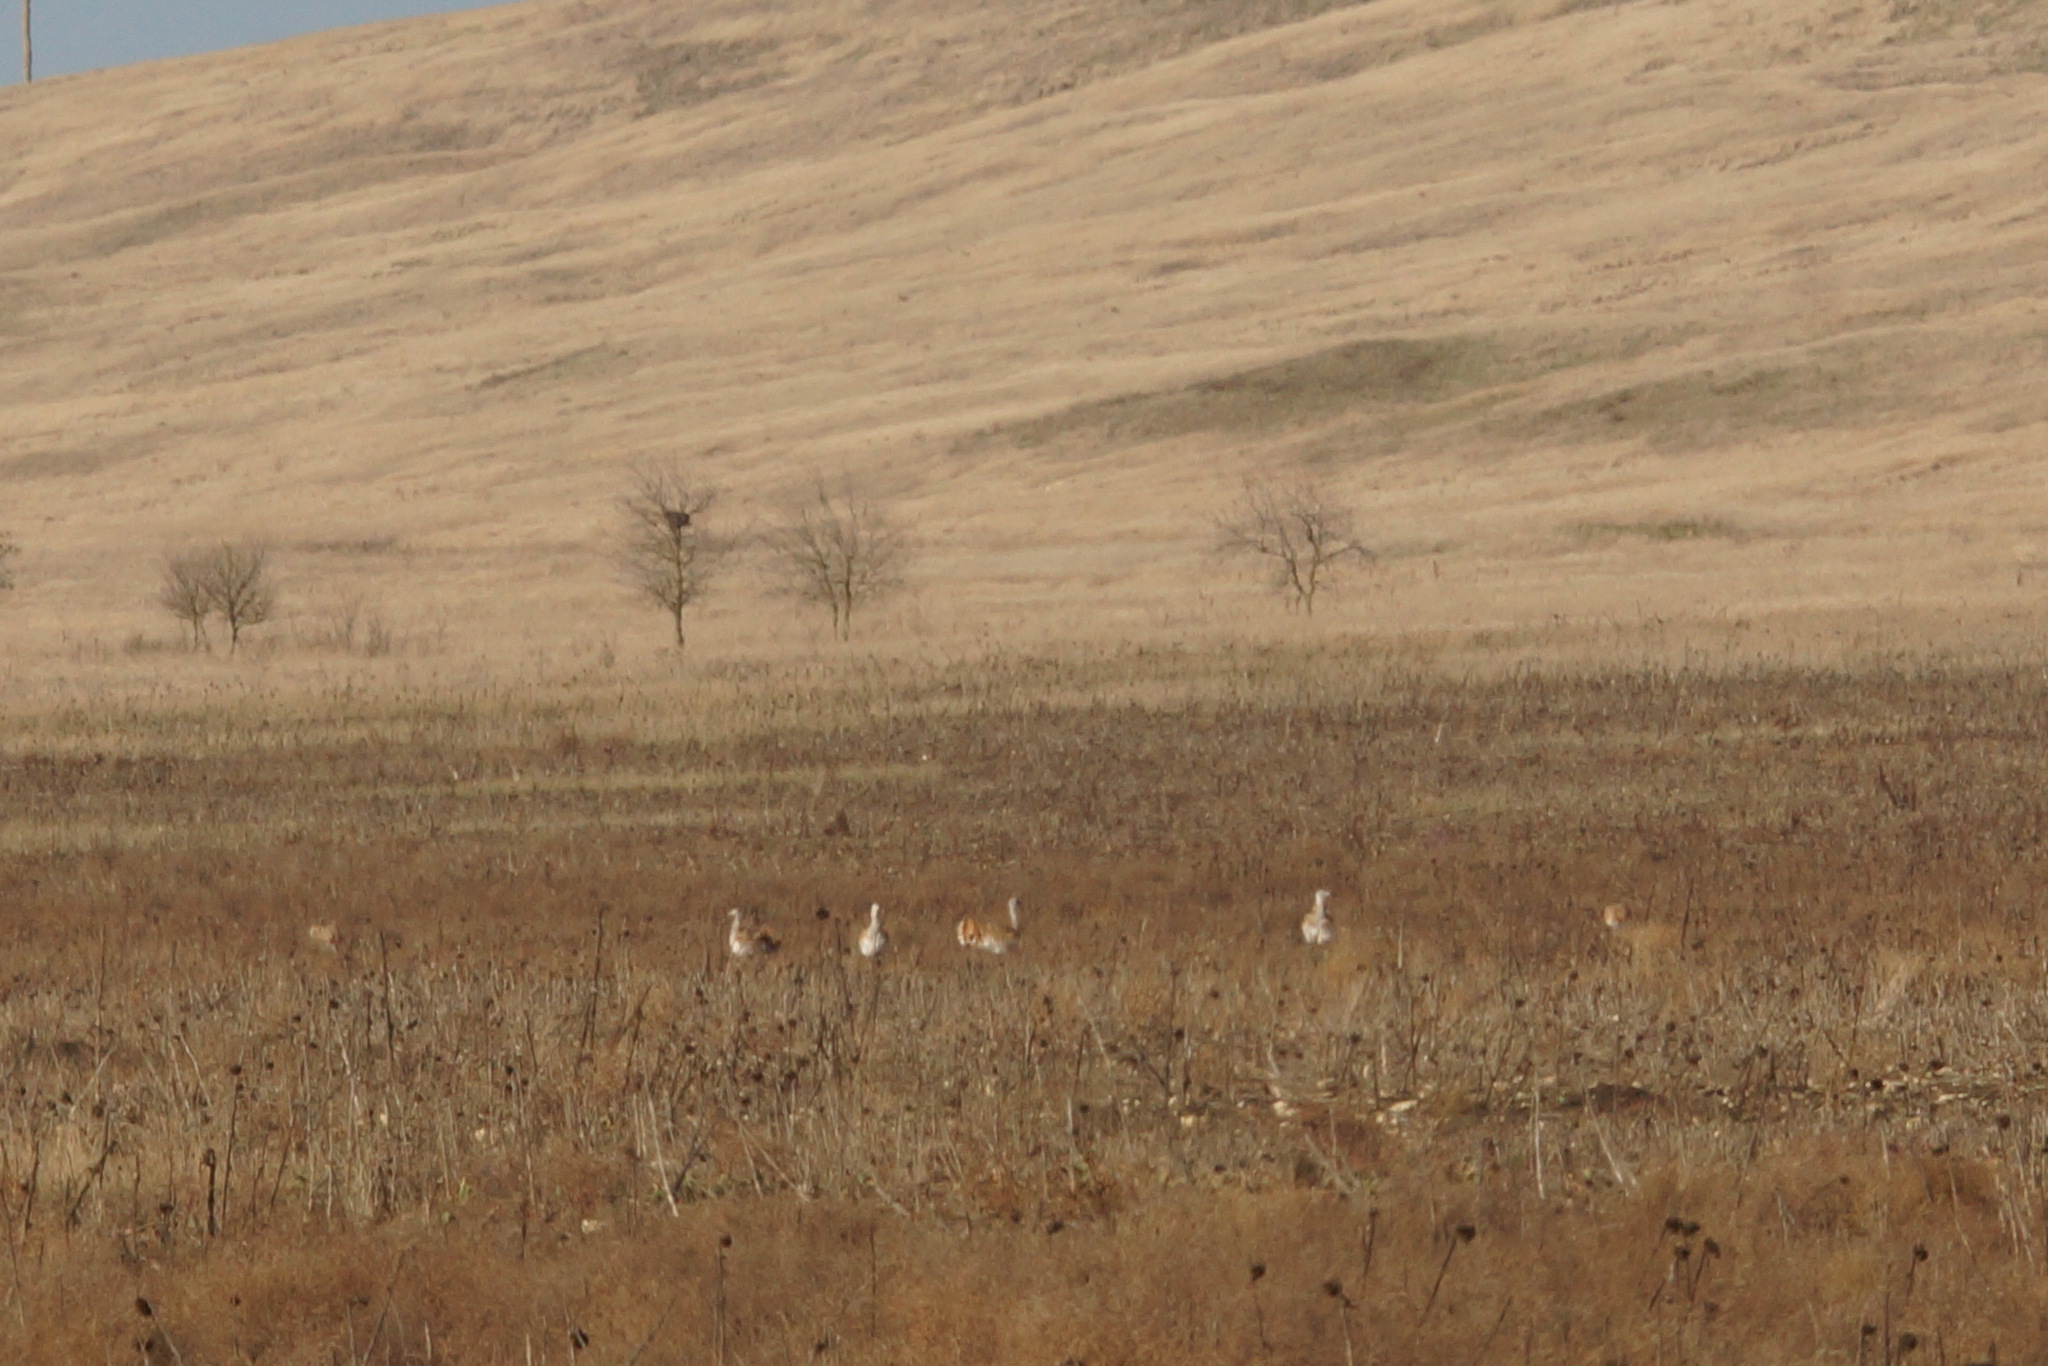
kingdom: Animalia
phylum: Chordata
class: Aves
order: Otidiformes
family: Otididae
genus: Otis
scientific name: Otis tarda
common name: Great bustard
